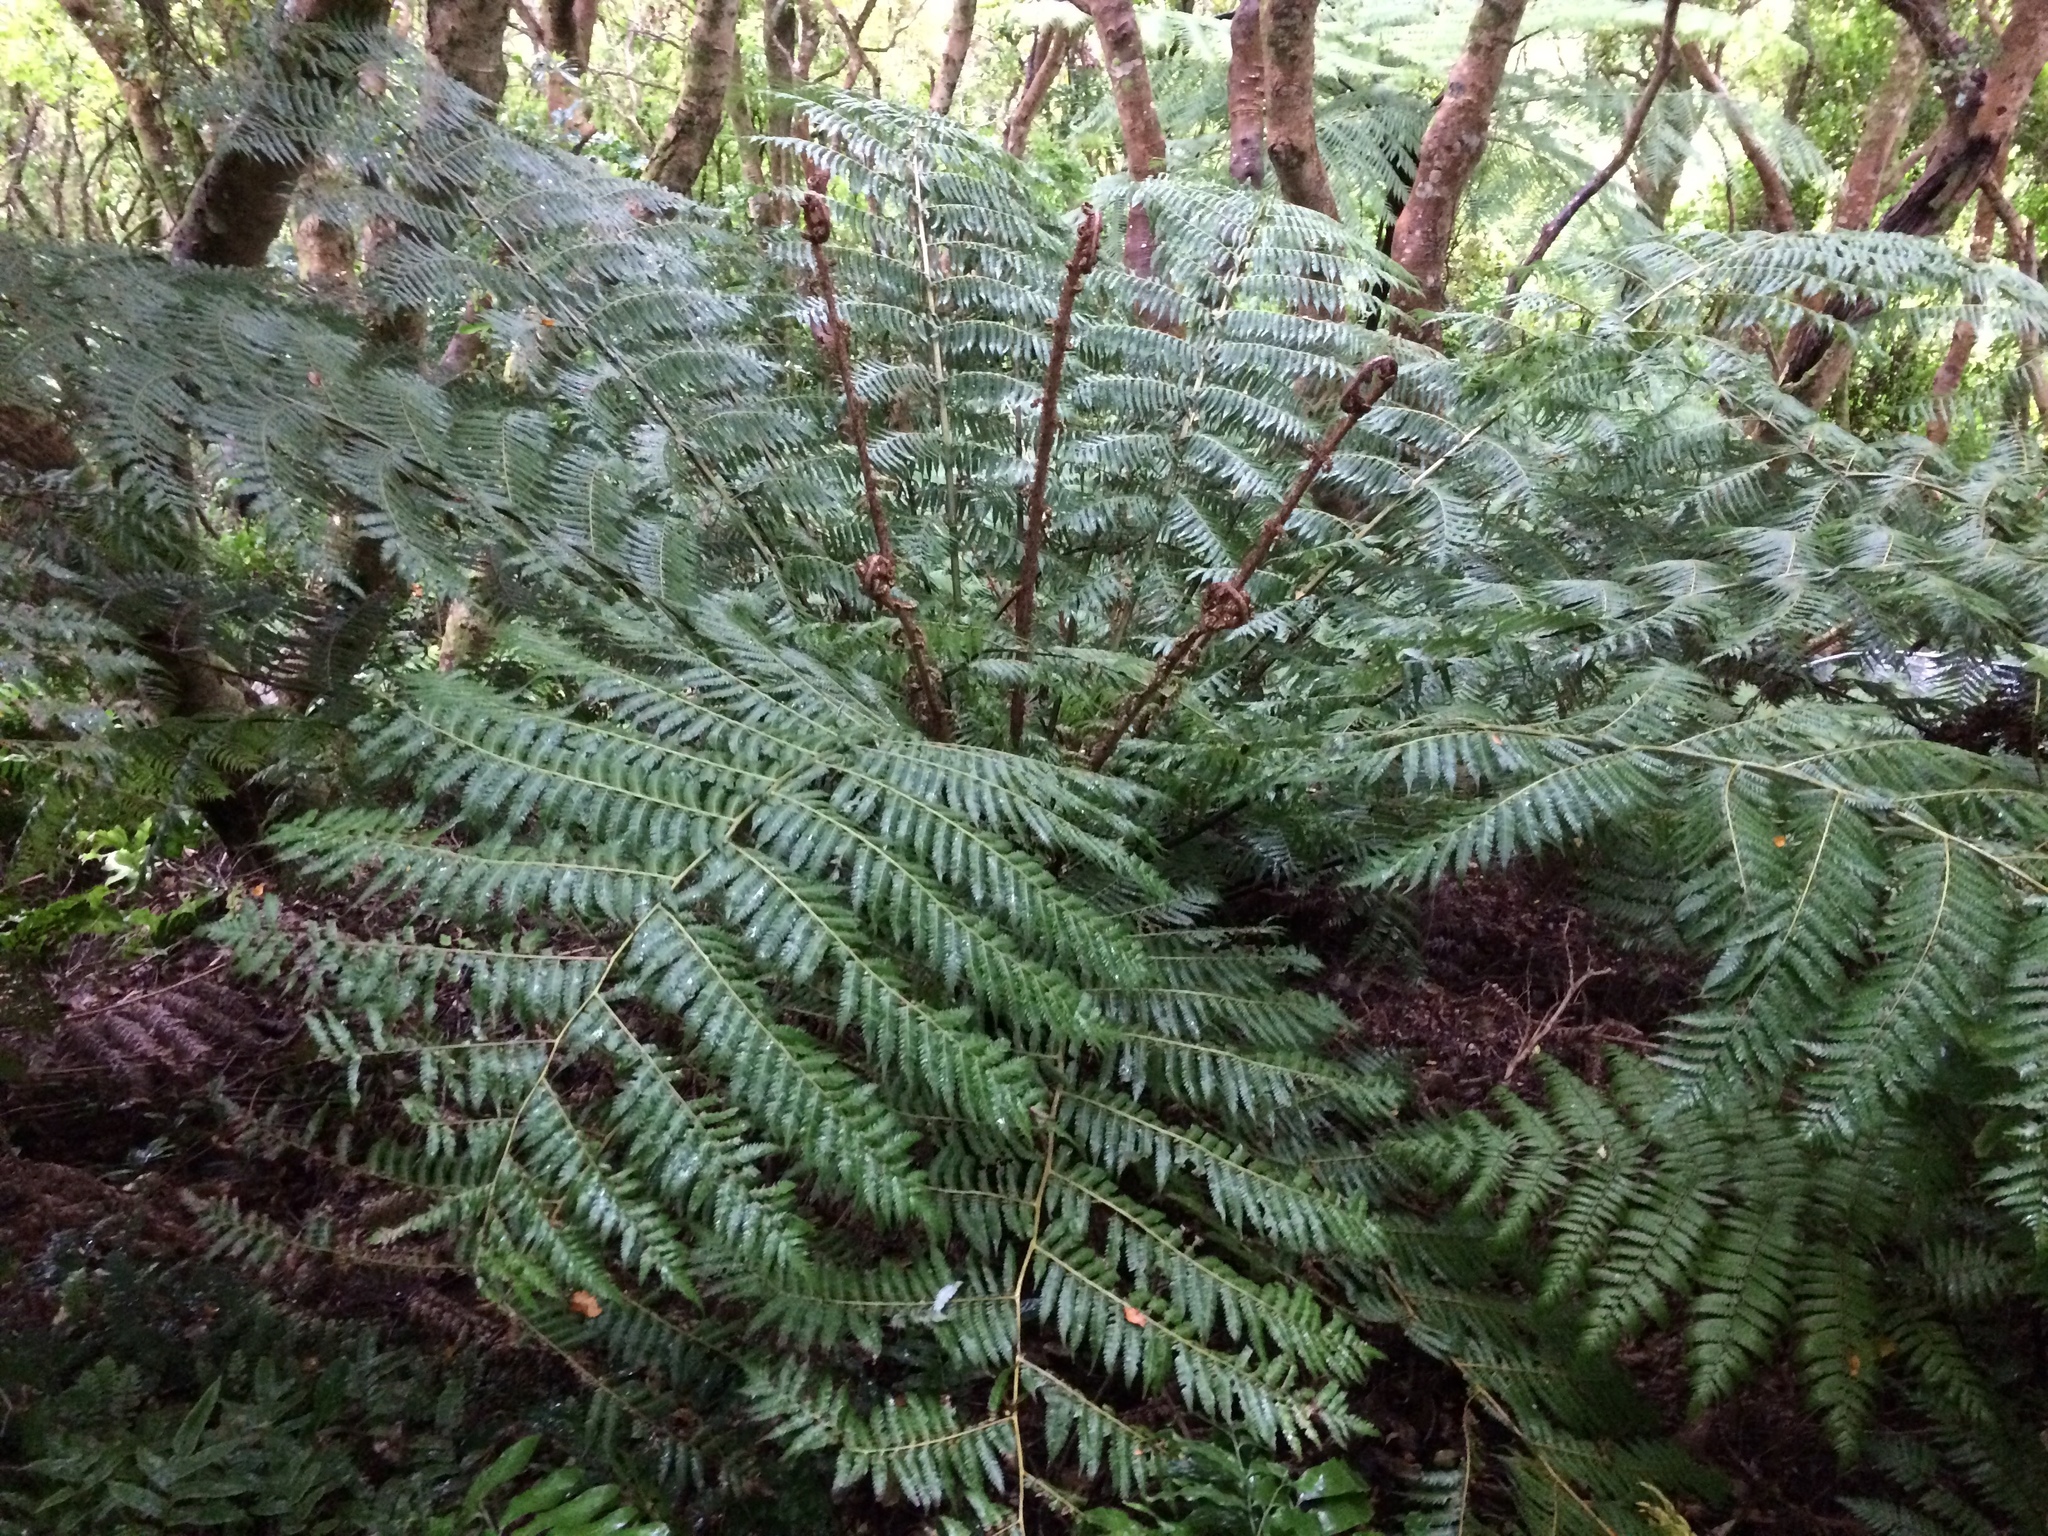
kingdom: Plantae
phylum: Tracheophyta
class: Polypodiopsida
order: Cyatheales
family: Cyatheaceae
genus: Alsophila
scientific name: Alsophila dealbata
